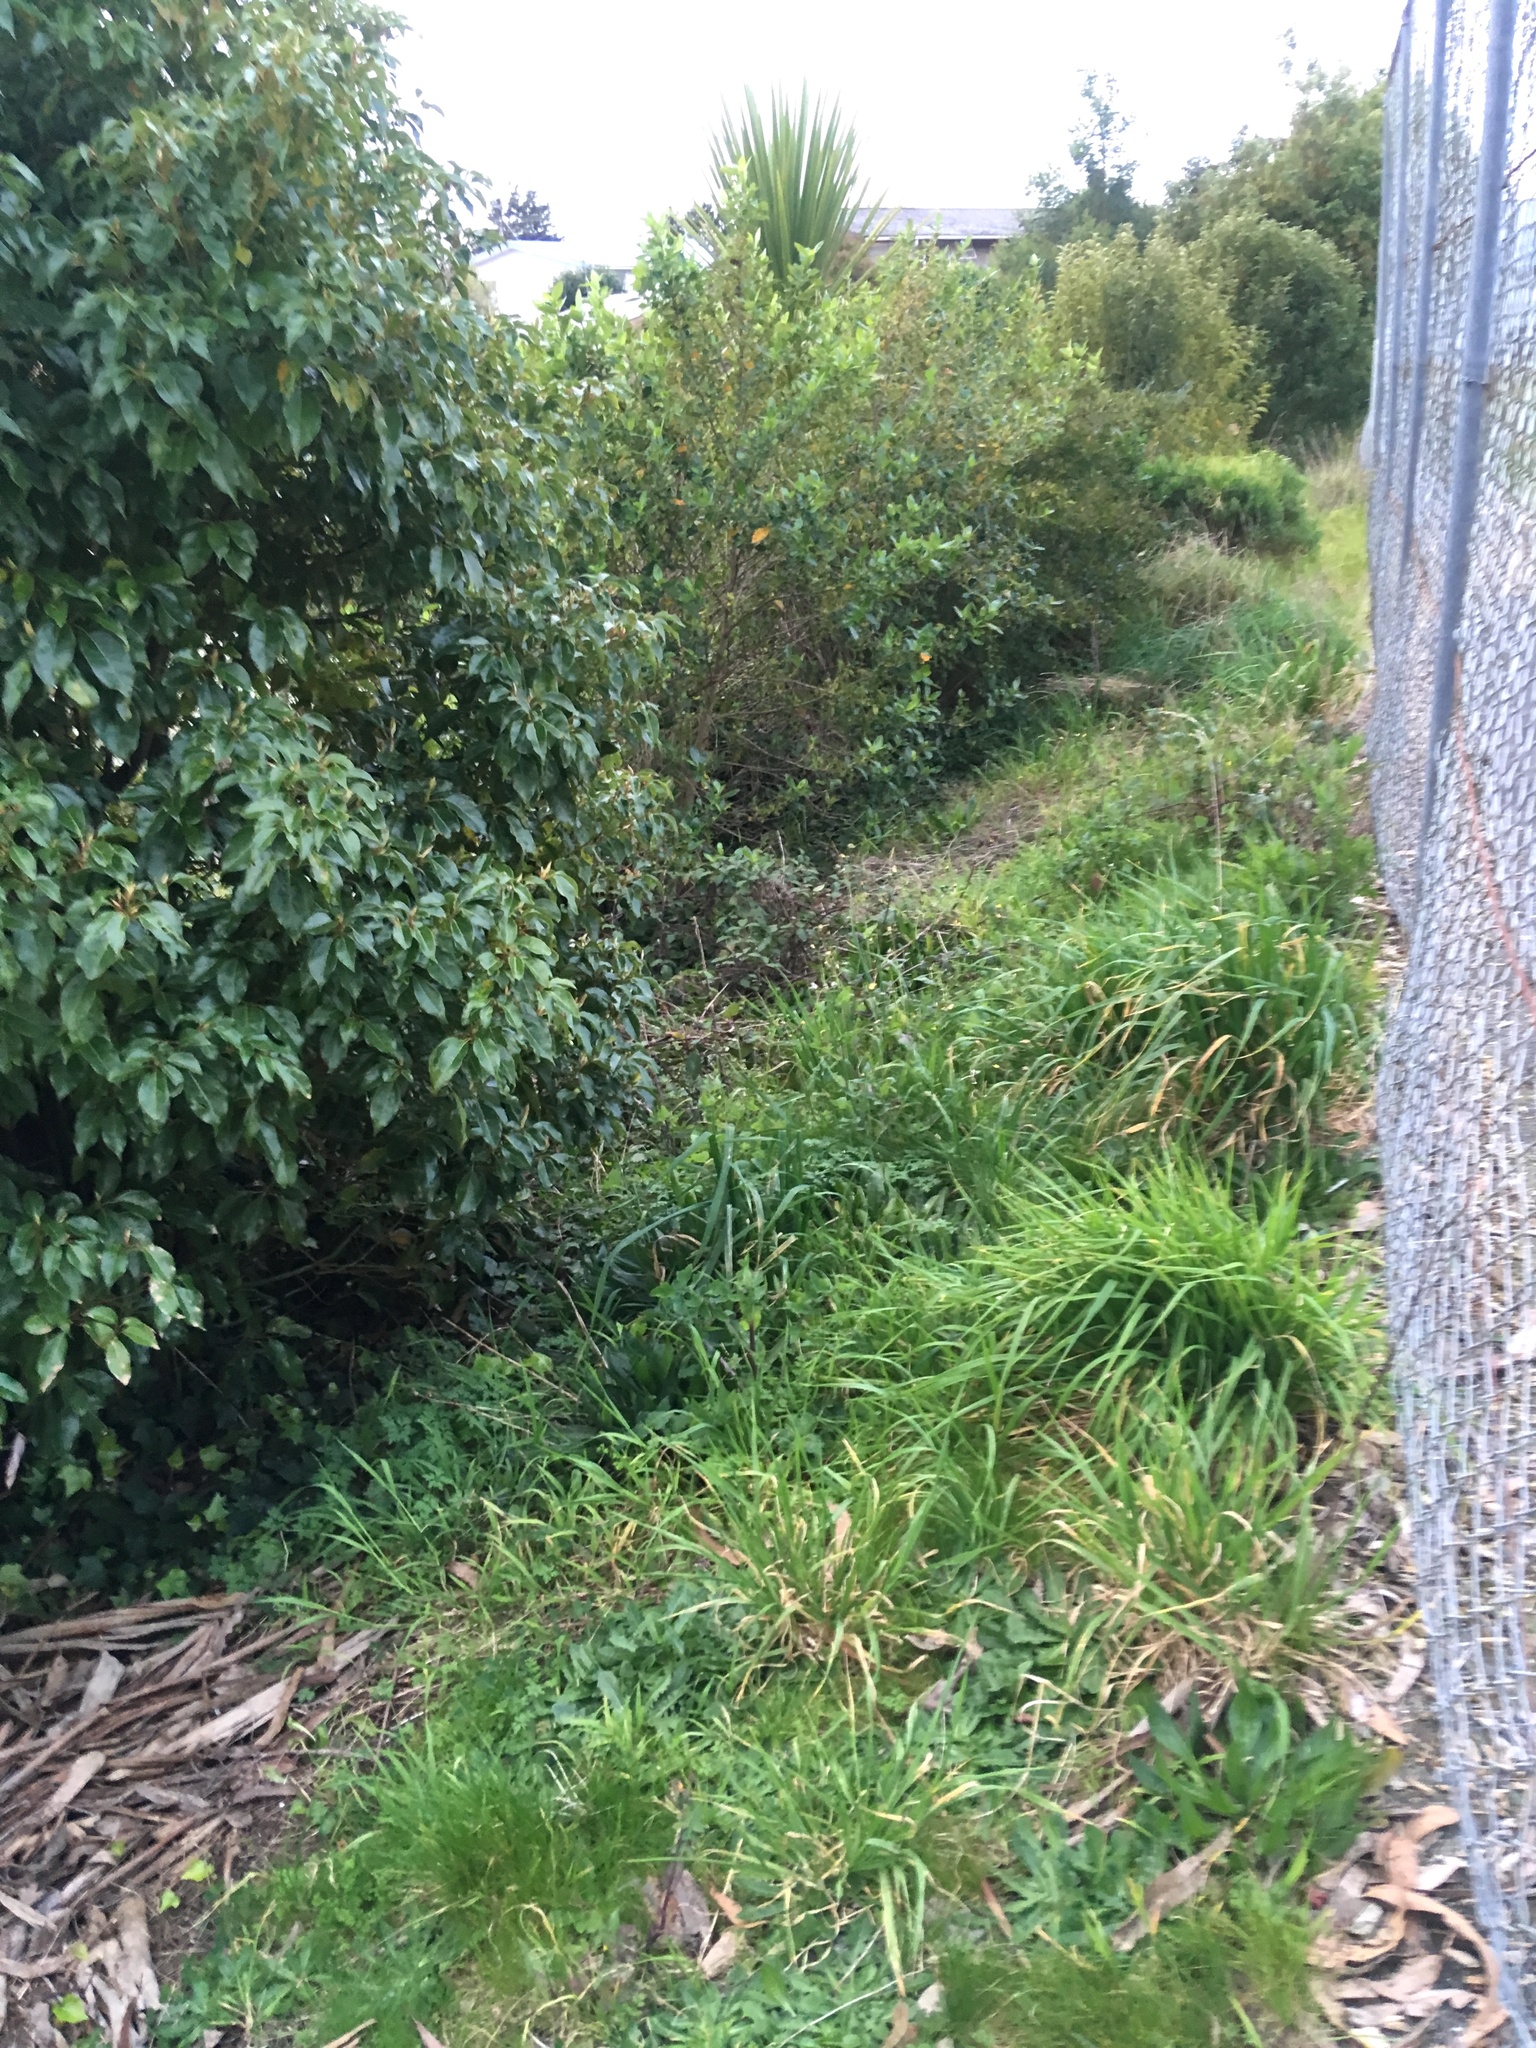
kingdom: Plantae
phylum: Tracheophyta
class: Polypodiopsida
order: Polypodiales
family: Nephrolepidaceae
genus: Nephrolepis
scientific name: Nephrolepis cordifolia
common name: Narrow swordfern
